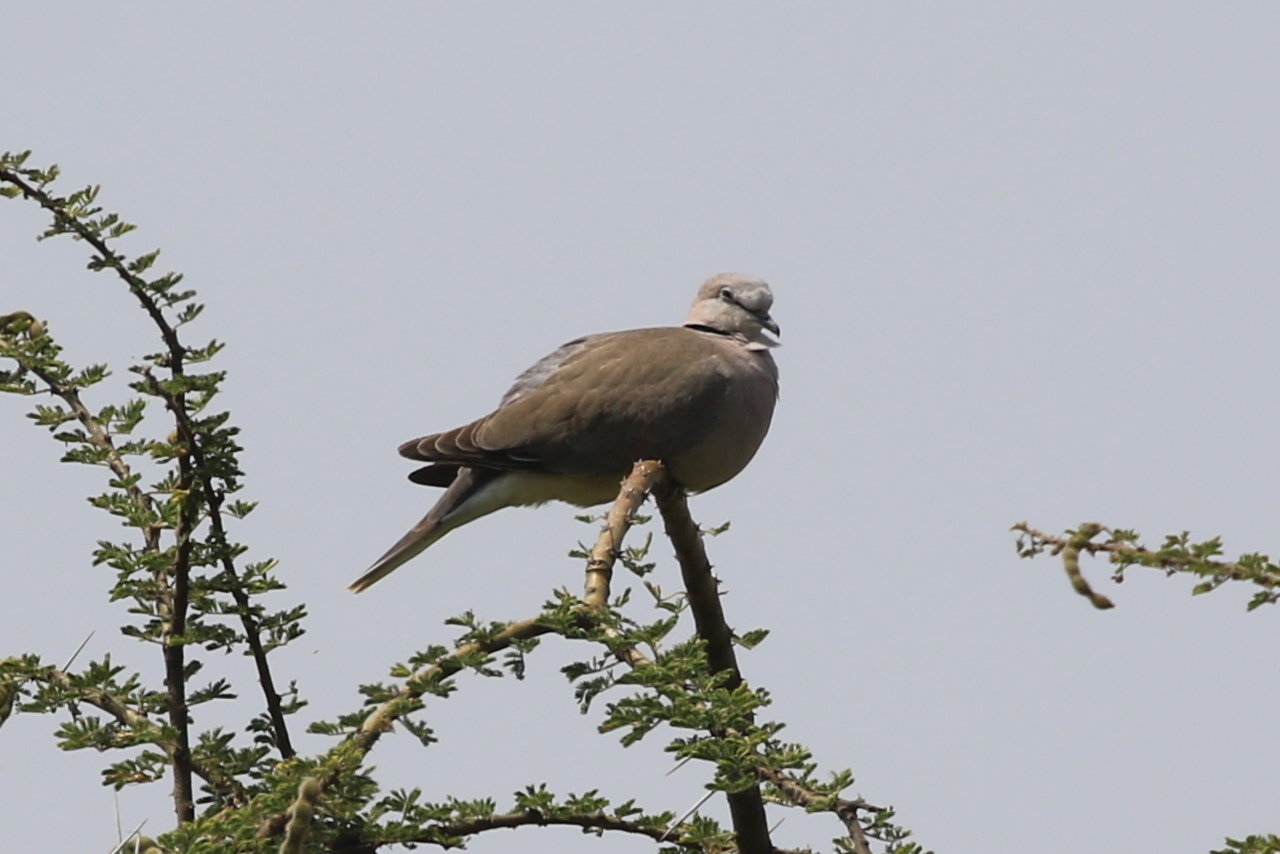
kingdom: Animalia
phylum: Chordata
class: Aves
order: Columbiformes
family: Columbidae
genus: Streptopelia
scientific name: Streptopelia capicola
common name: Ring-necked dove
